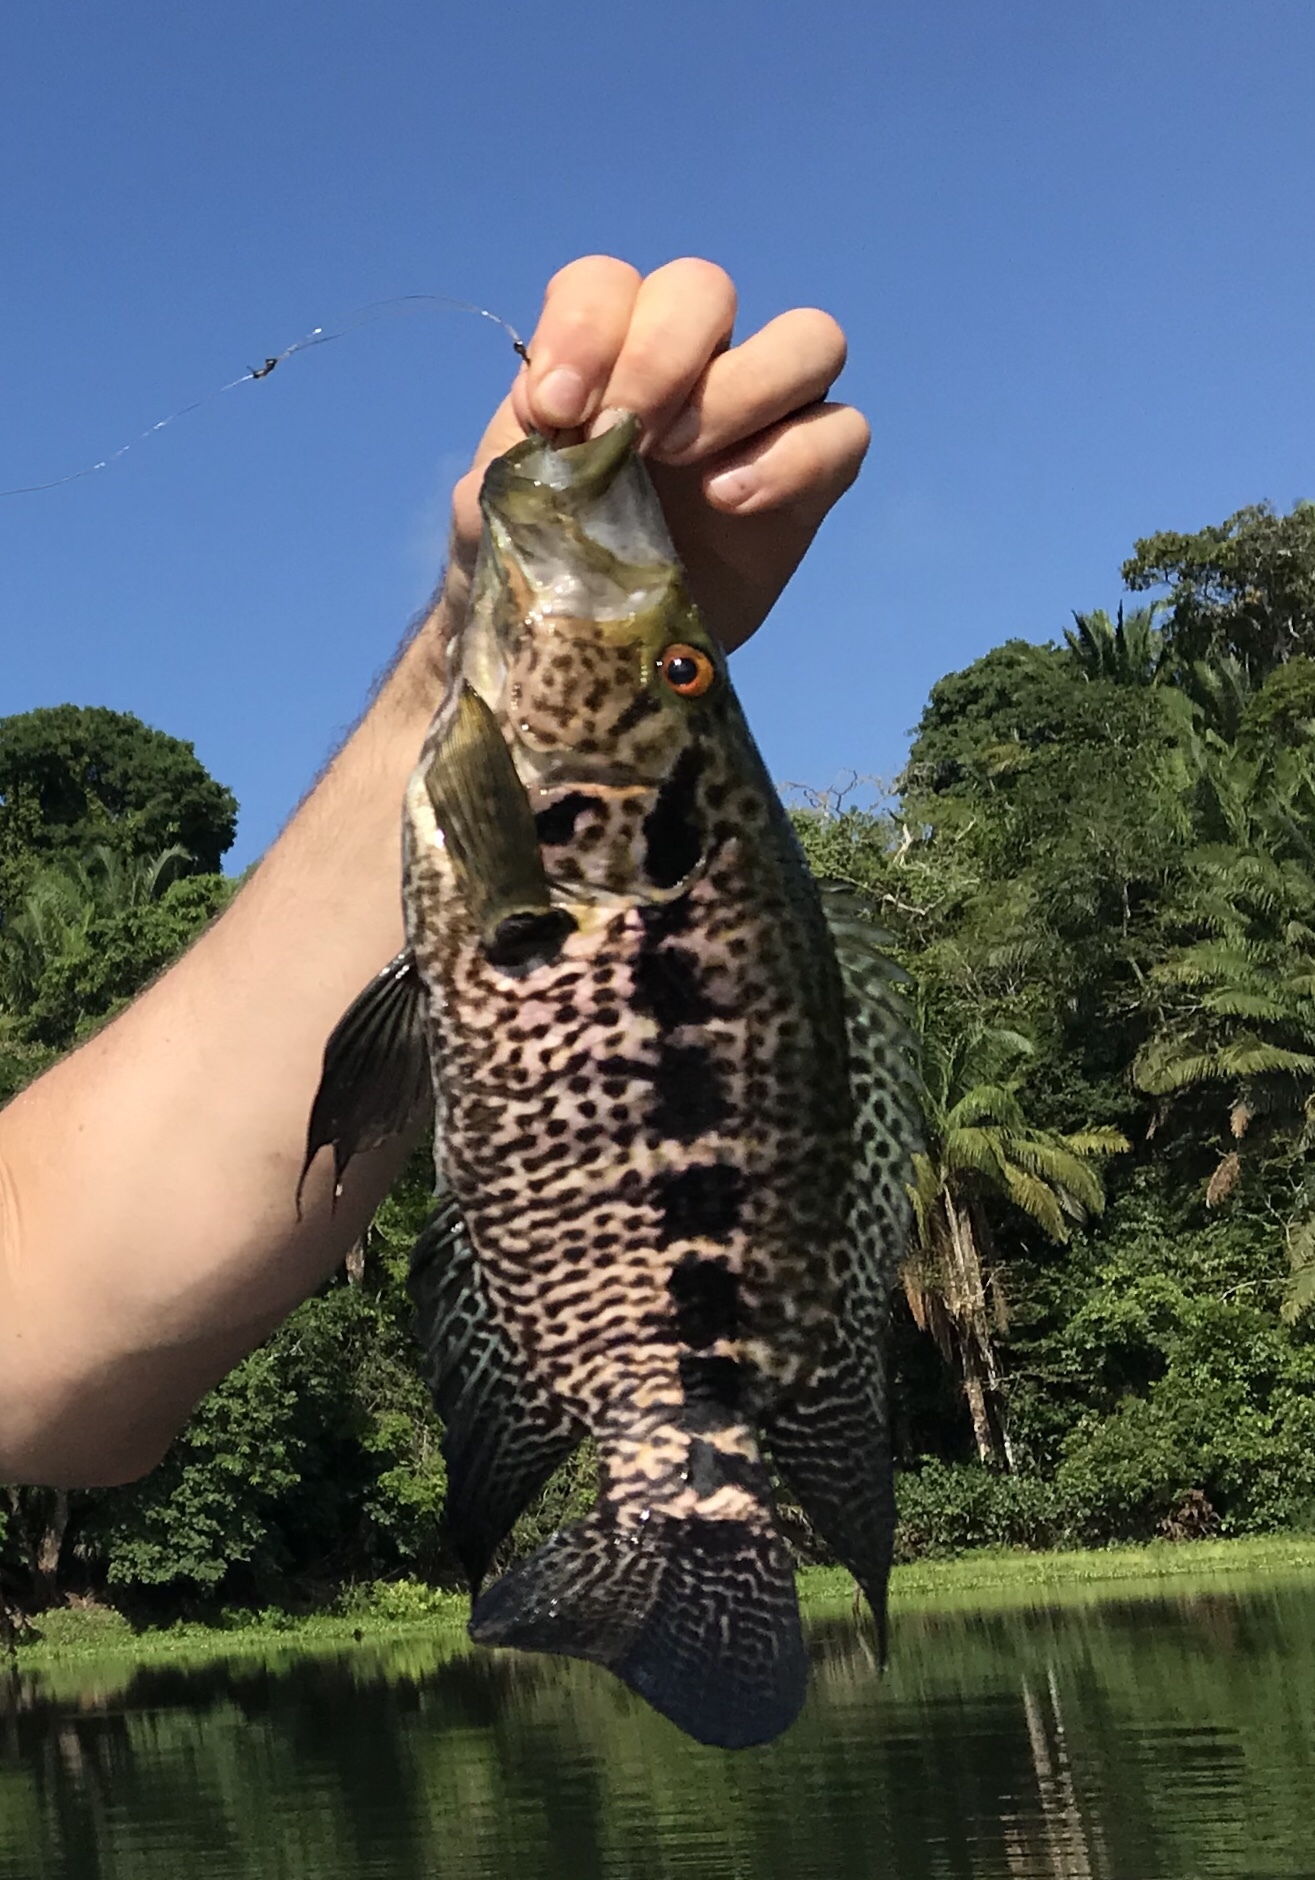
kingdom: Animalia
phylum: Chordata
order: Perciformes
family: Cichlidae
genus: Parachromis
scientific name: Parachromis managuensis
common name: Jaguar guapote
